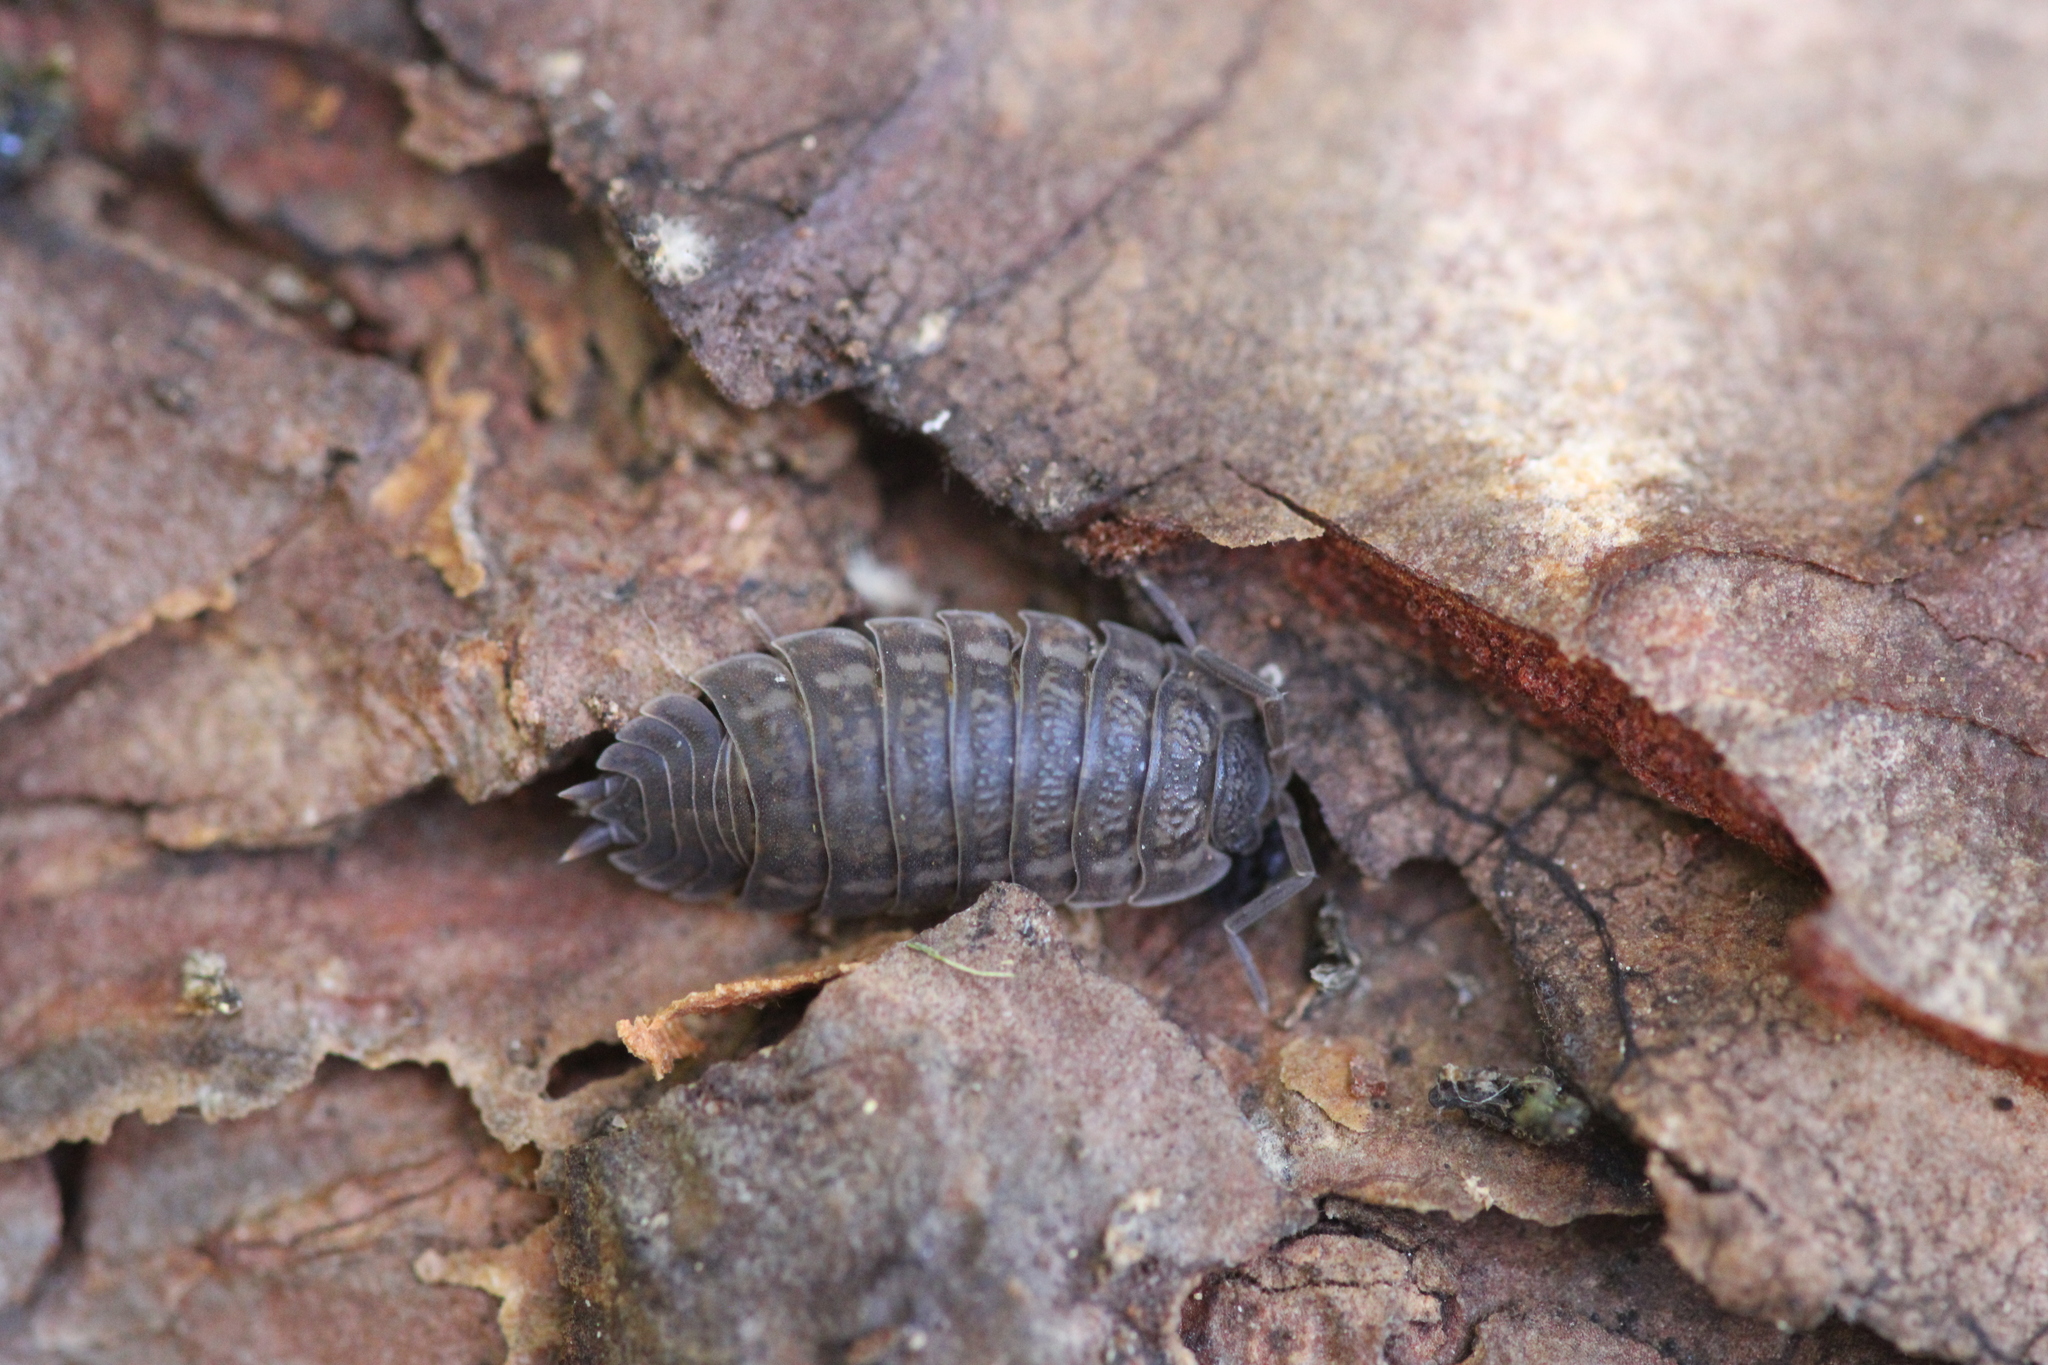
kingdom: Animalia
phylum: Arthropoda
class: Malacostraca
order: Isopoda
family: Trachelipodidae
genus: Trachelipus
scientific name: Trachelipus rathkii
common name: Isopod
